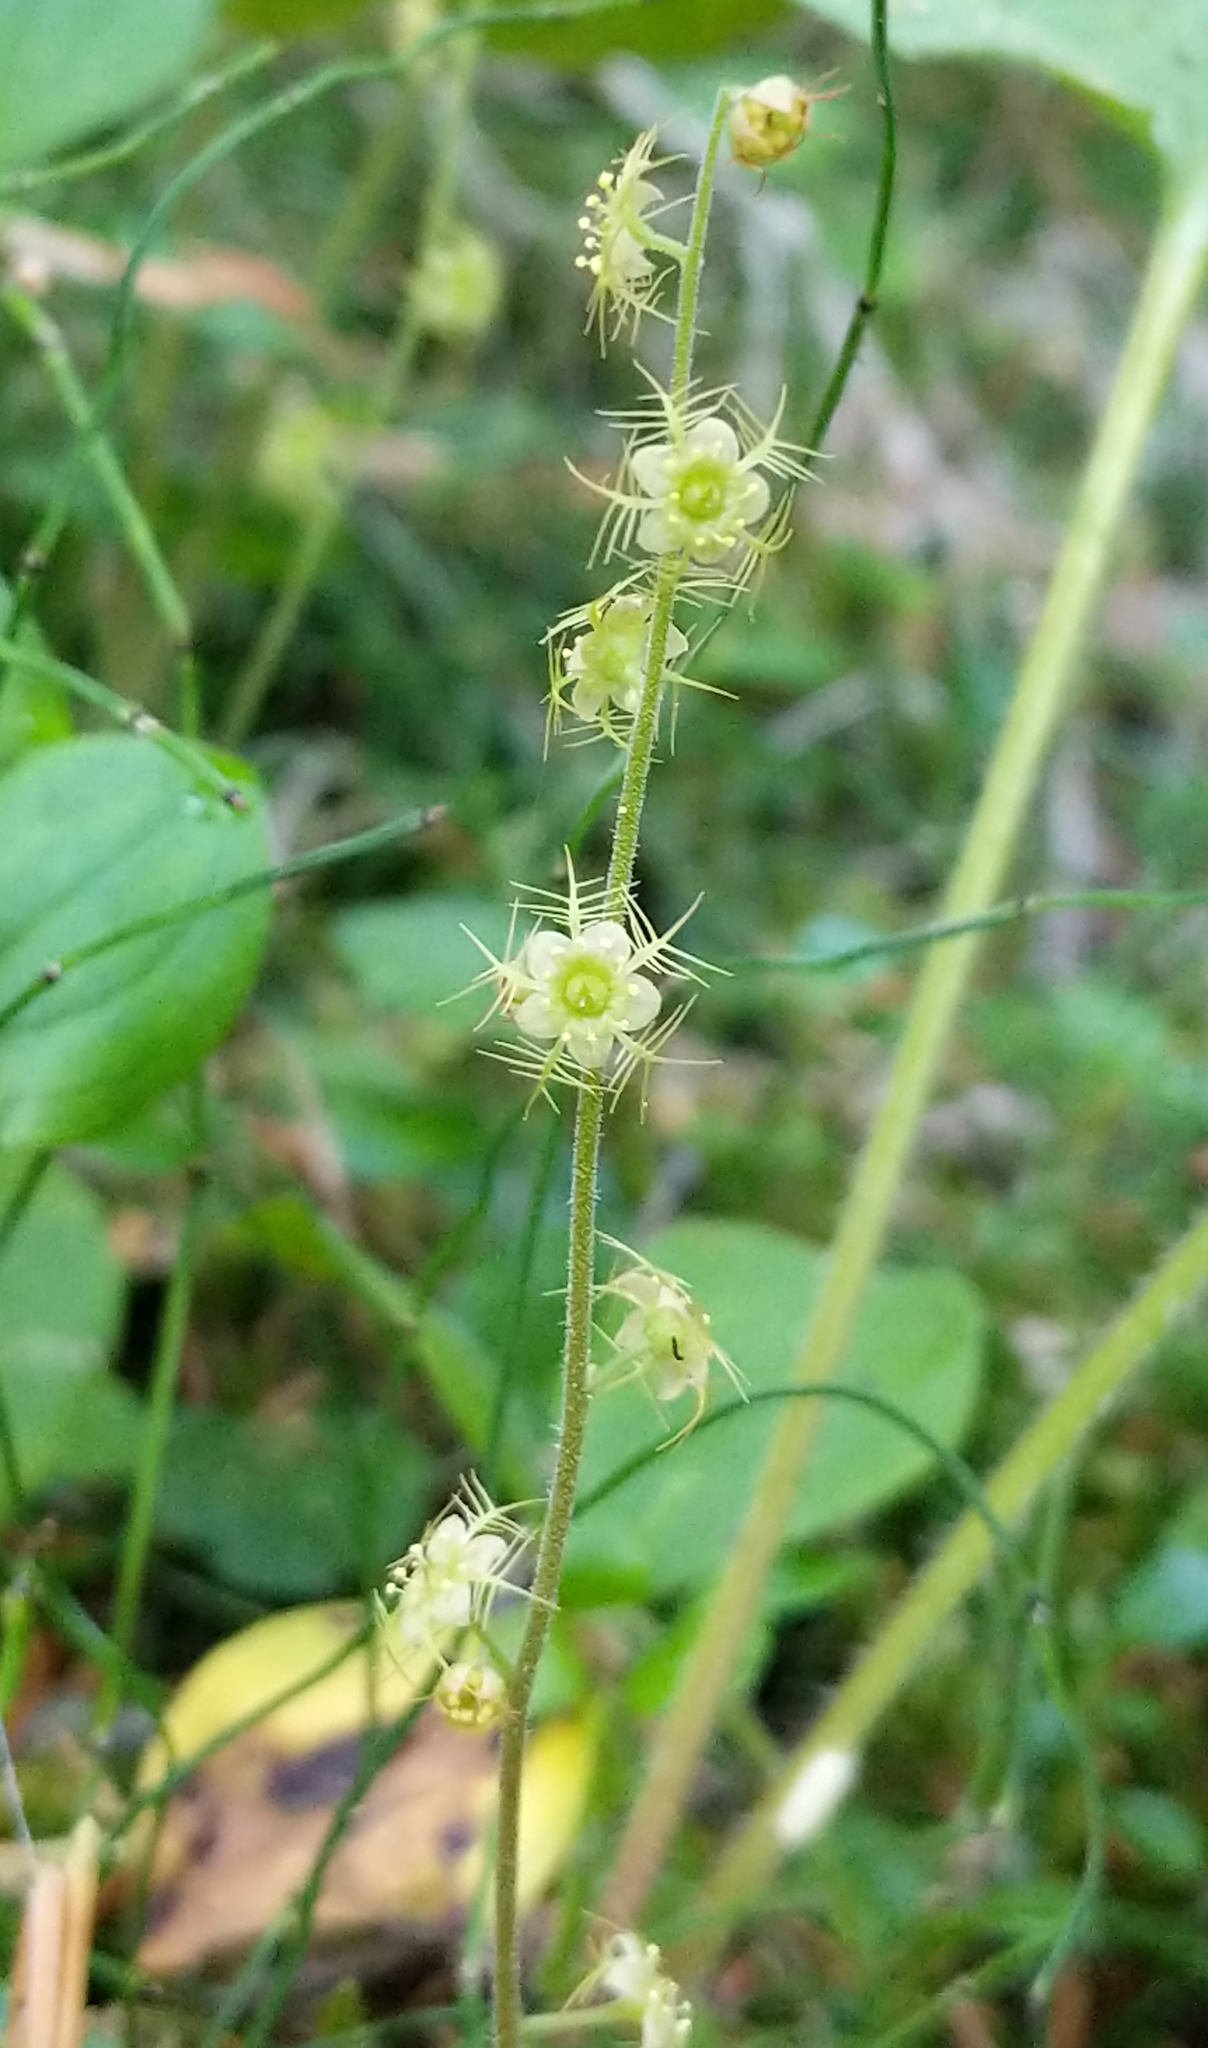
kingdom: Plantae
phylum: Tracheophyta
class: Magnoliopsida
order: Saxifragales
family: Saxifragaceae
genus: Mitella
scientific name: Mitella nuda
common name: Bare-stemmed bishop's-cap
